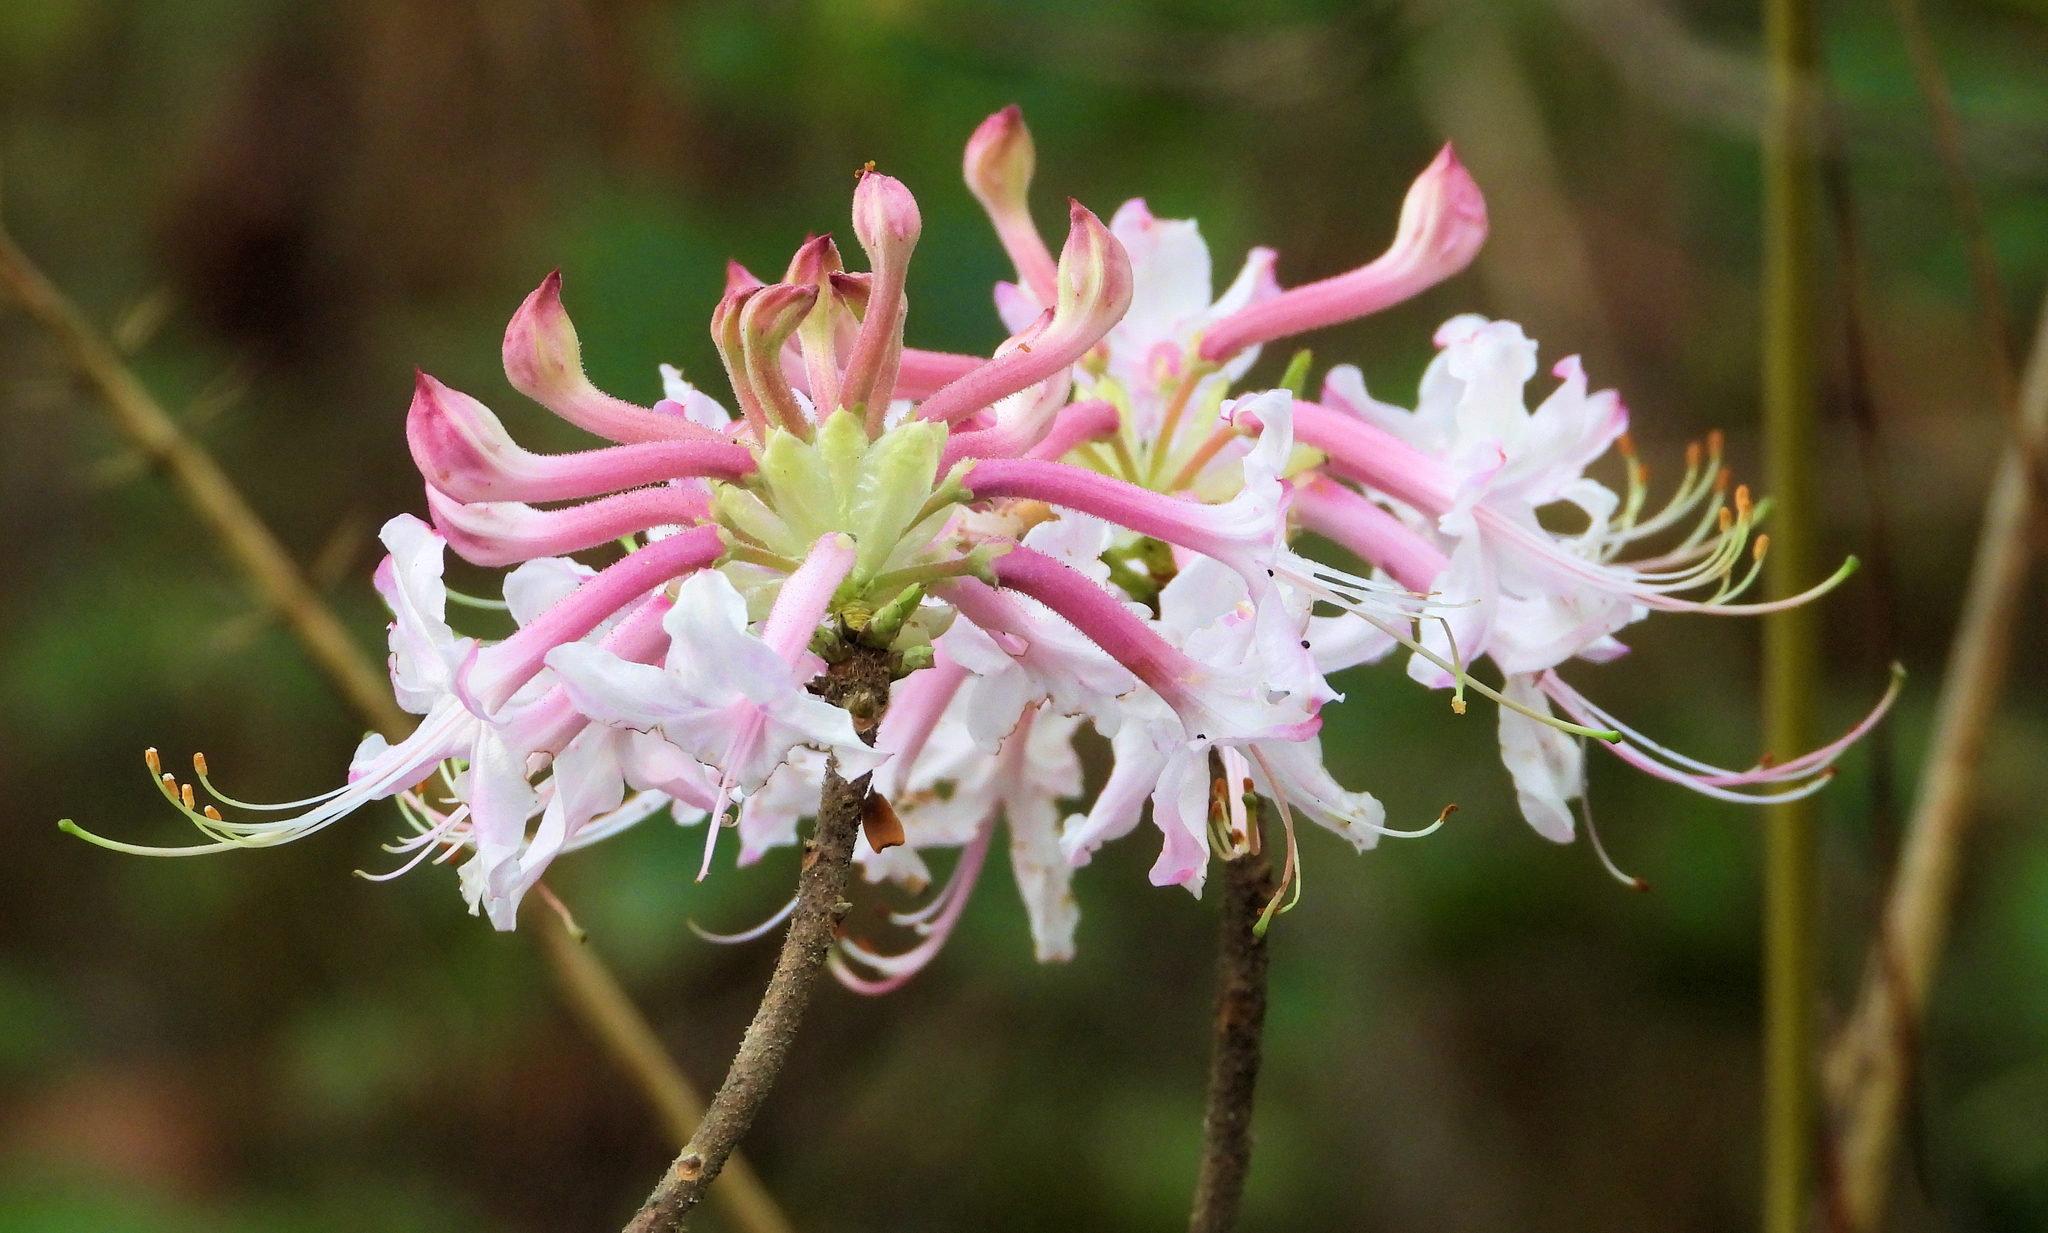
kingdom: Plantae
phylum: Tracheophyta
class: Magnoliopsida
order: Ericales
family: Ericaceae
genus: Rhododendron
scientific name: Rhododendron canescens
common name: Mountain azalea
